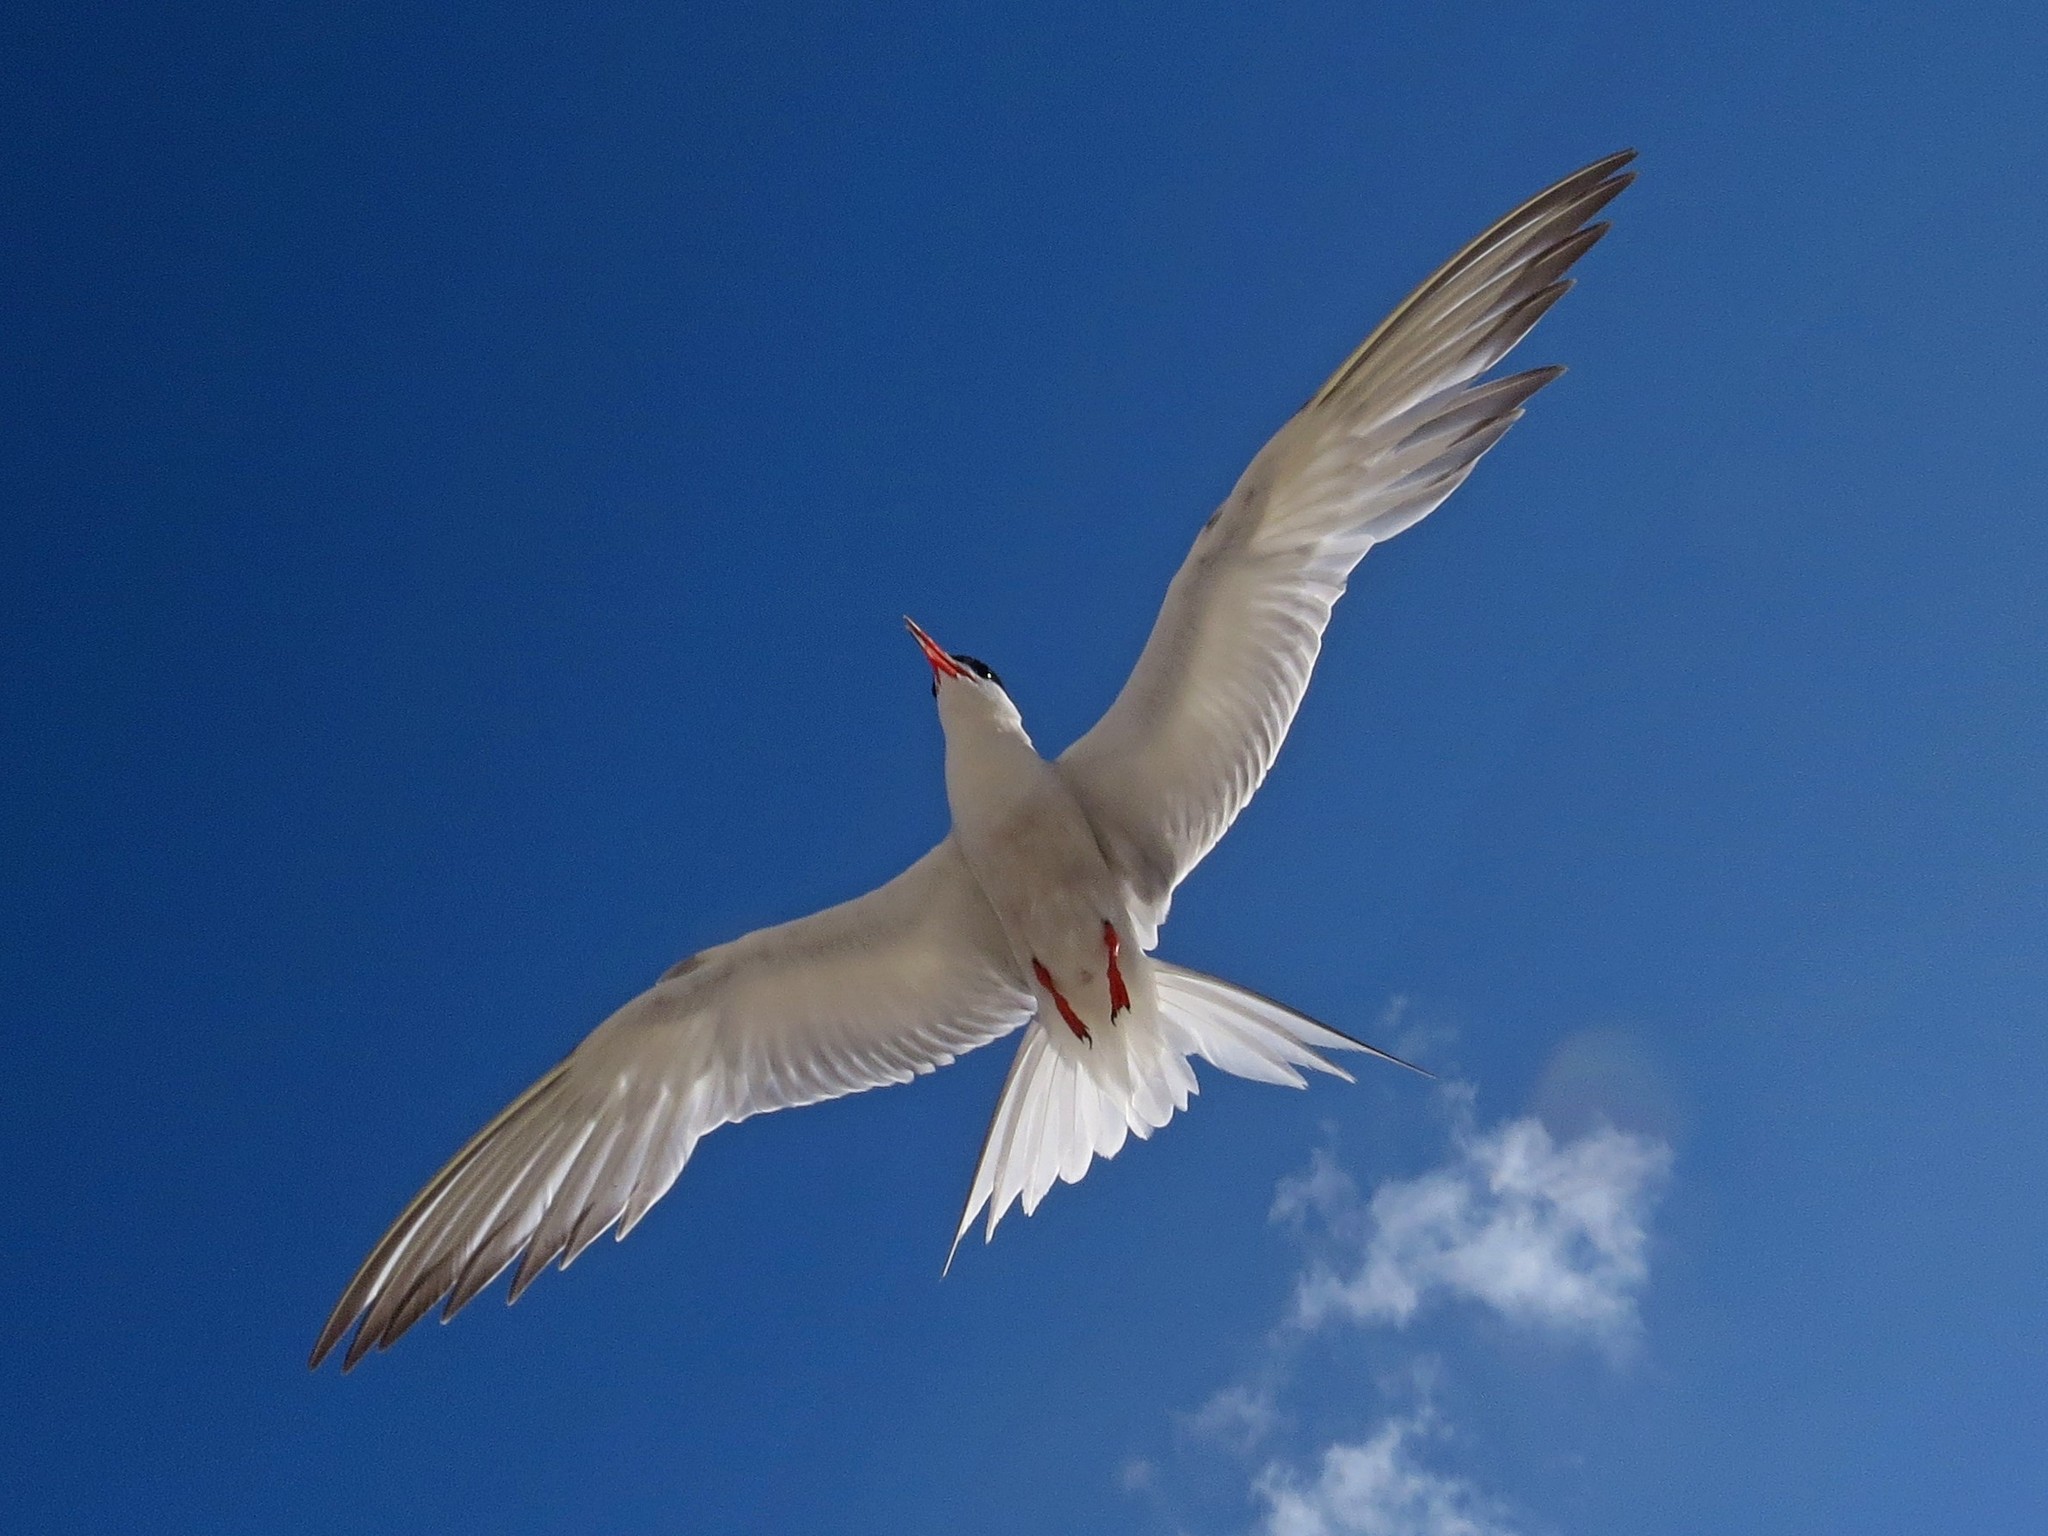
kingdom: Animalia
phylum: Chordata
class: Aves
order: Charadriiformes
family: Laridae
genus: Sterna
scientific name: Sterna hirundo
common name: Common tern
